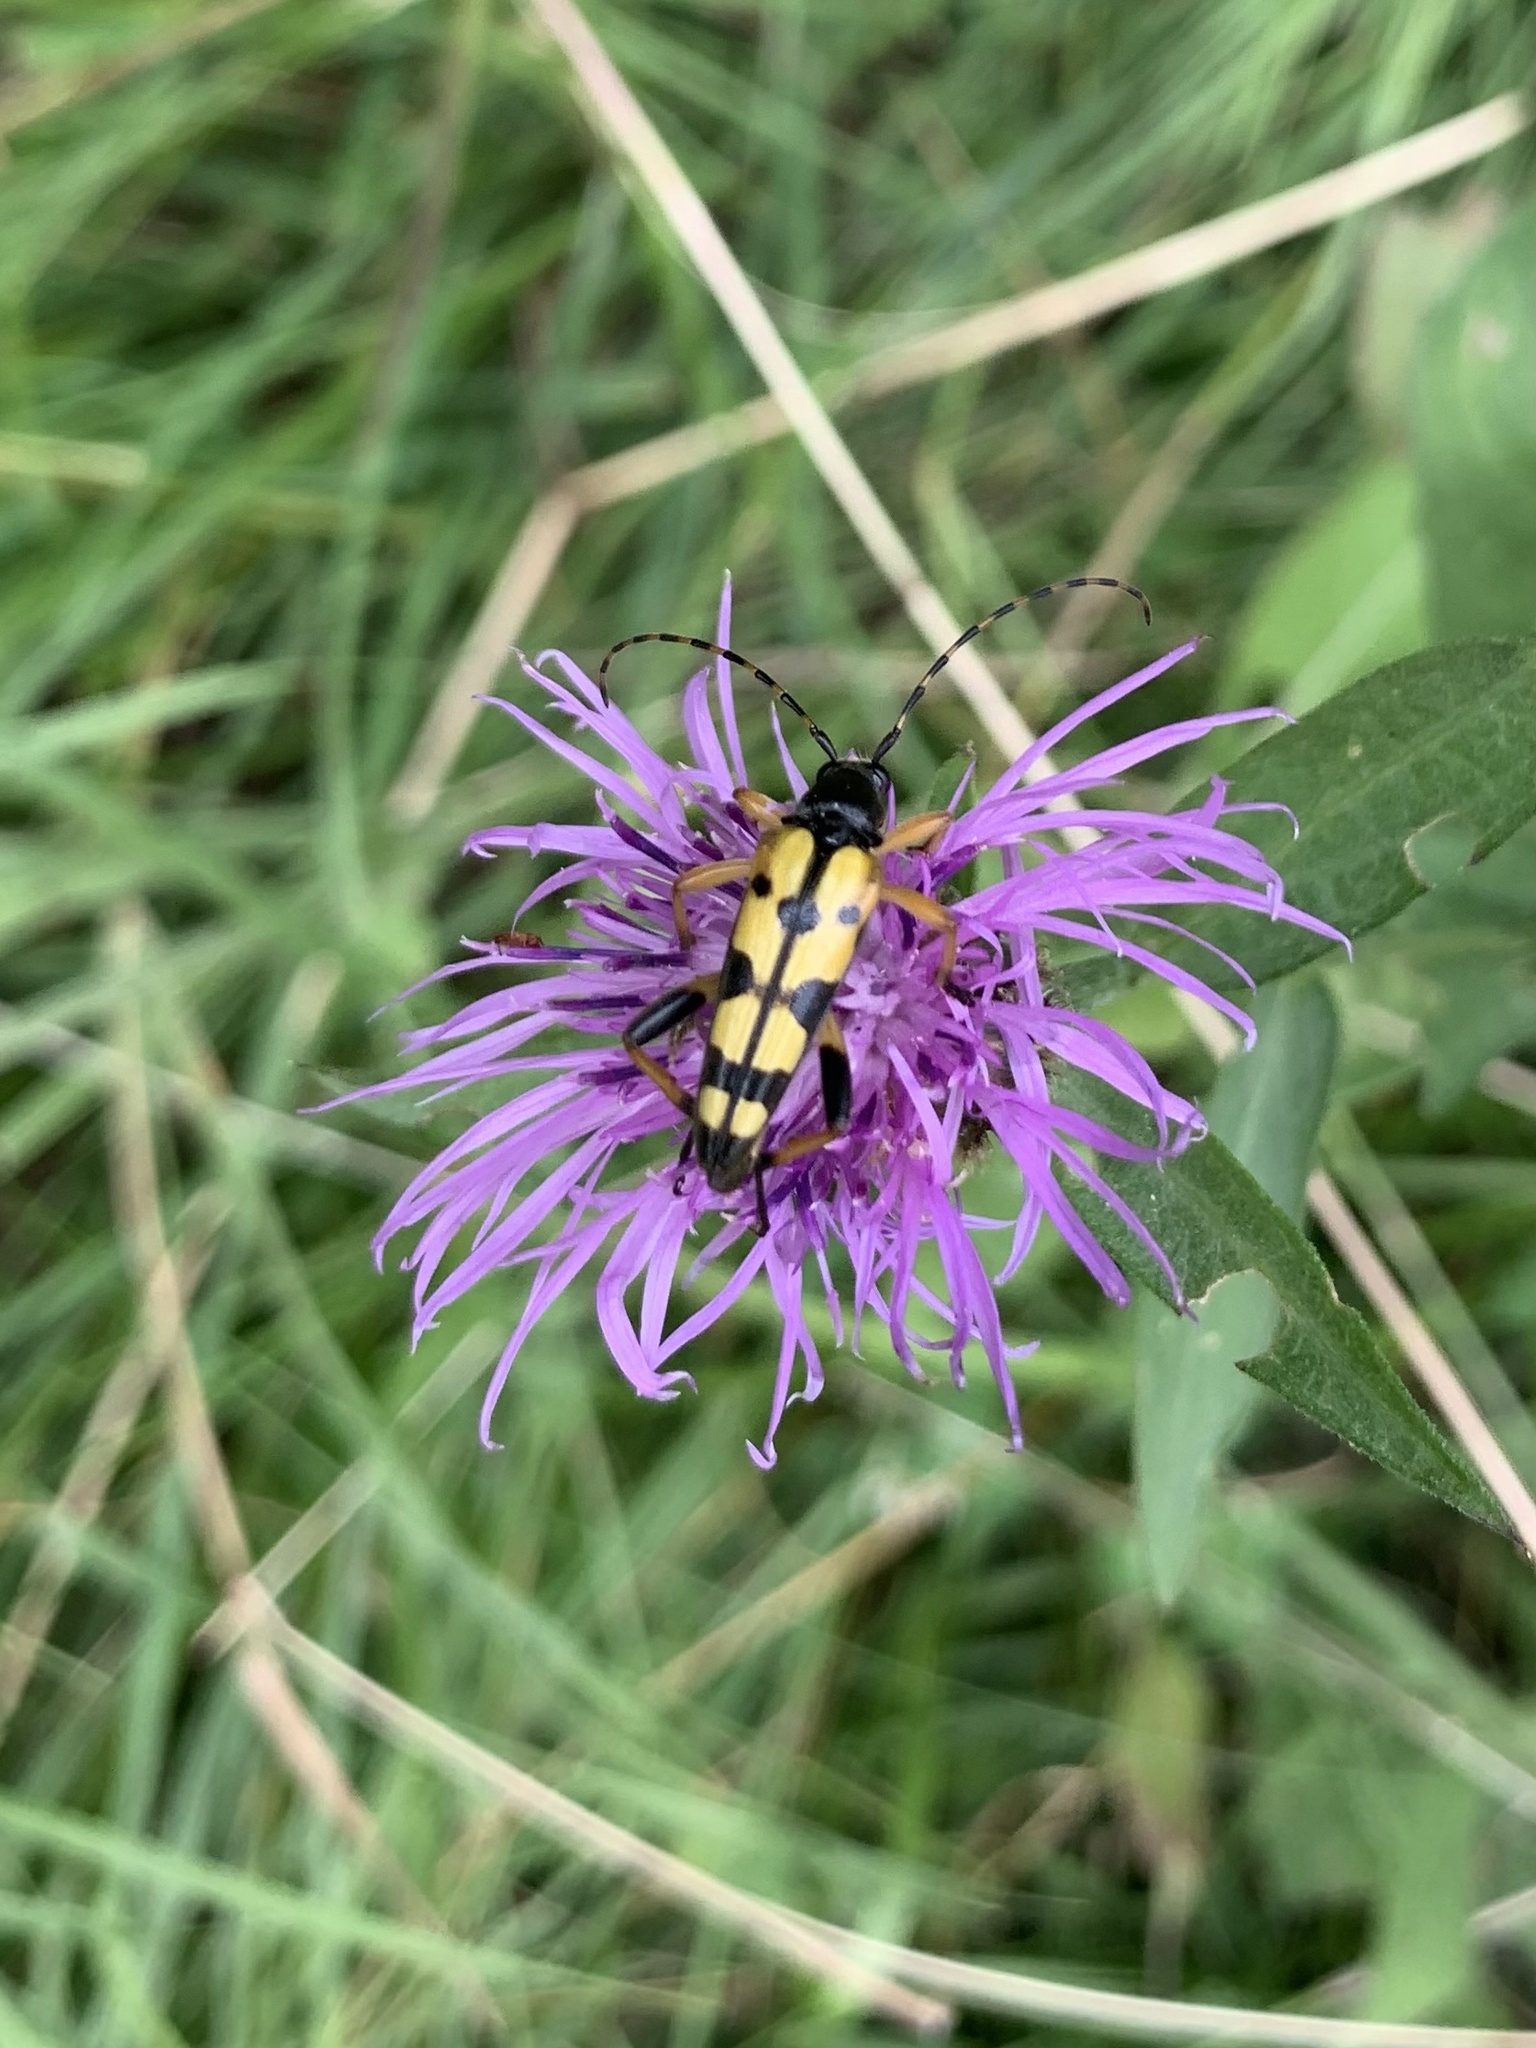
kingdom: Animalia
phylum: Arthropoda
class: Insecta
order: Coleoptera
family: Cerambycidae
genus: Rutpela
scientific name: Rutpela maculata
